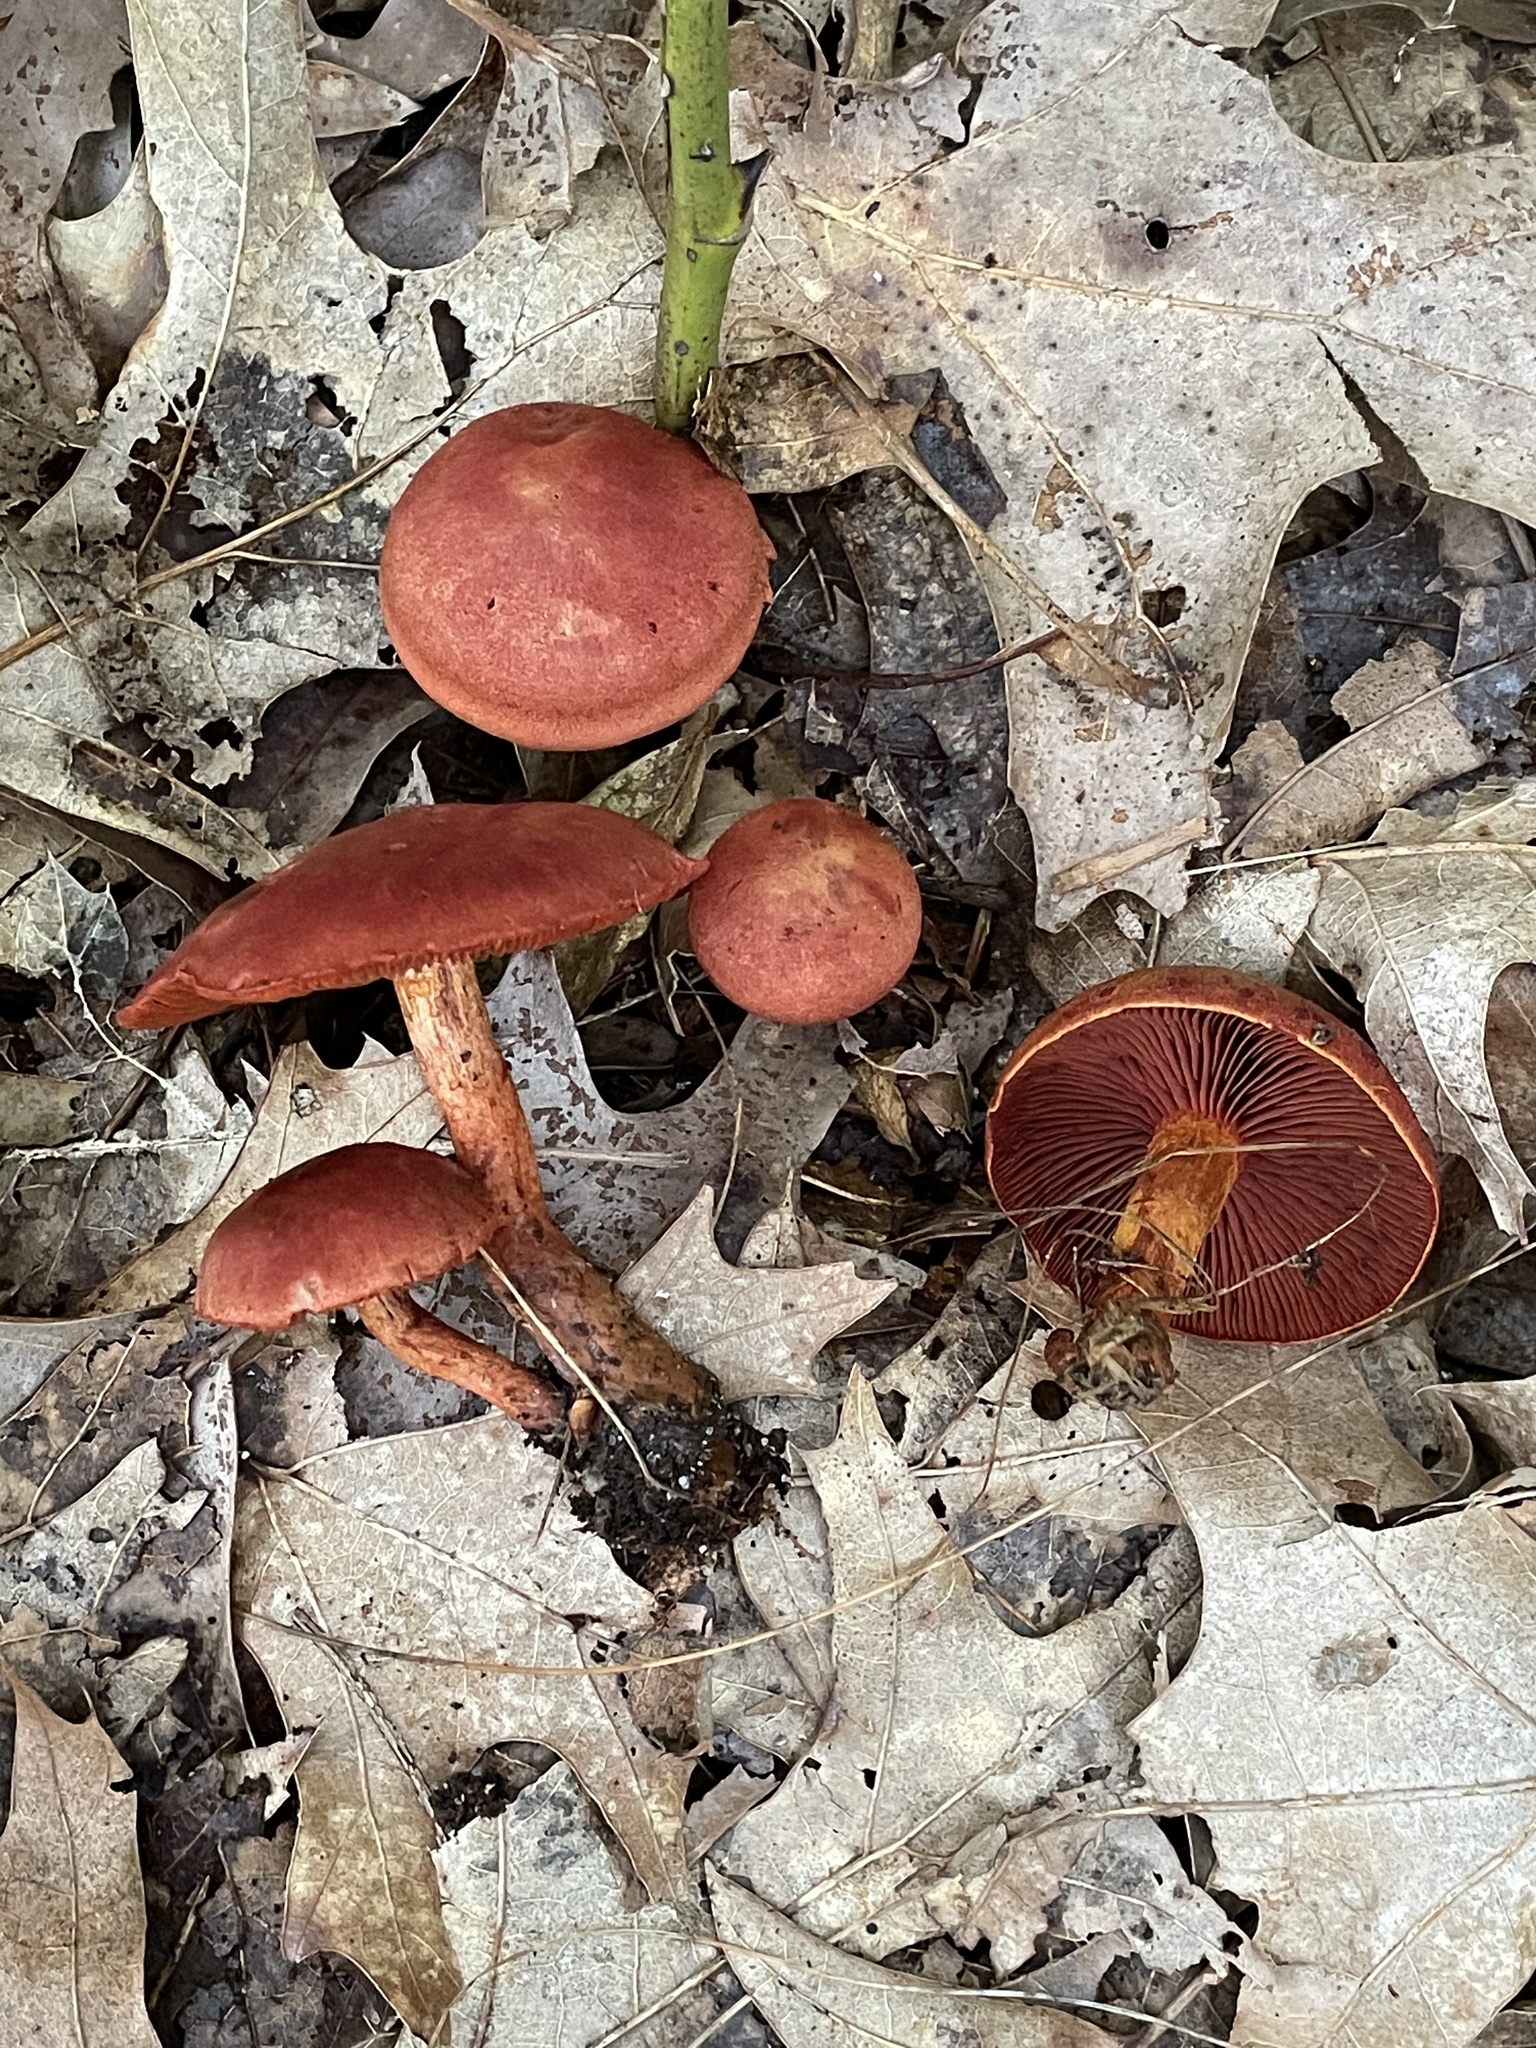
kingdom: Fungi
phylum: Basidiomycota
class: Agaricomycetes
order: Agaricales
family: Cortinariaceae
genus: Cortinarius
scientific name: Cortinarius sanguineus
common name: Bloodred webcap
